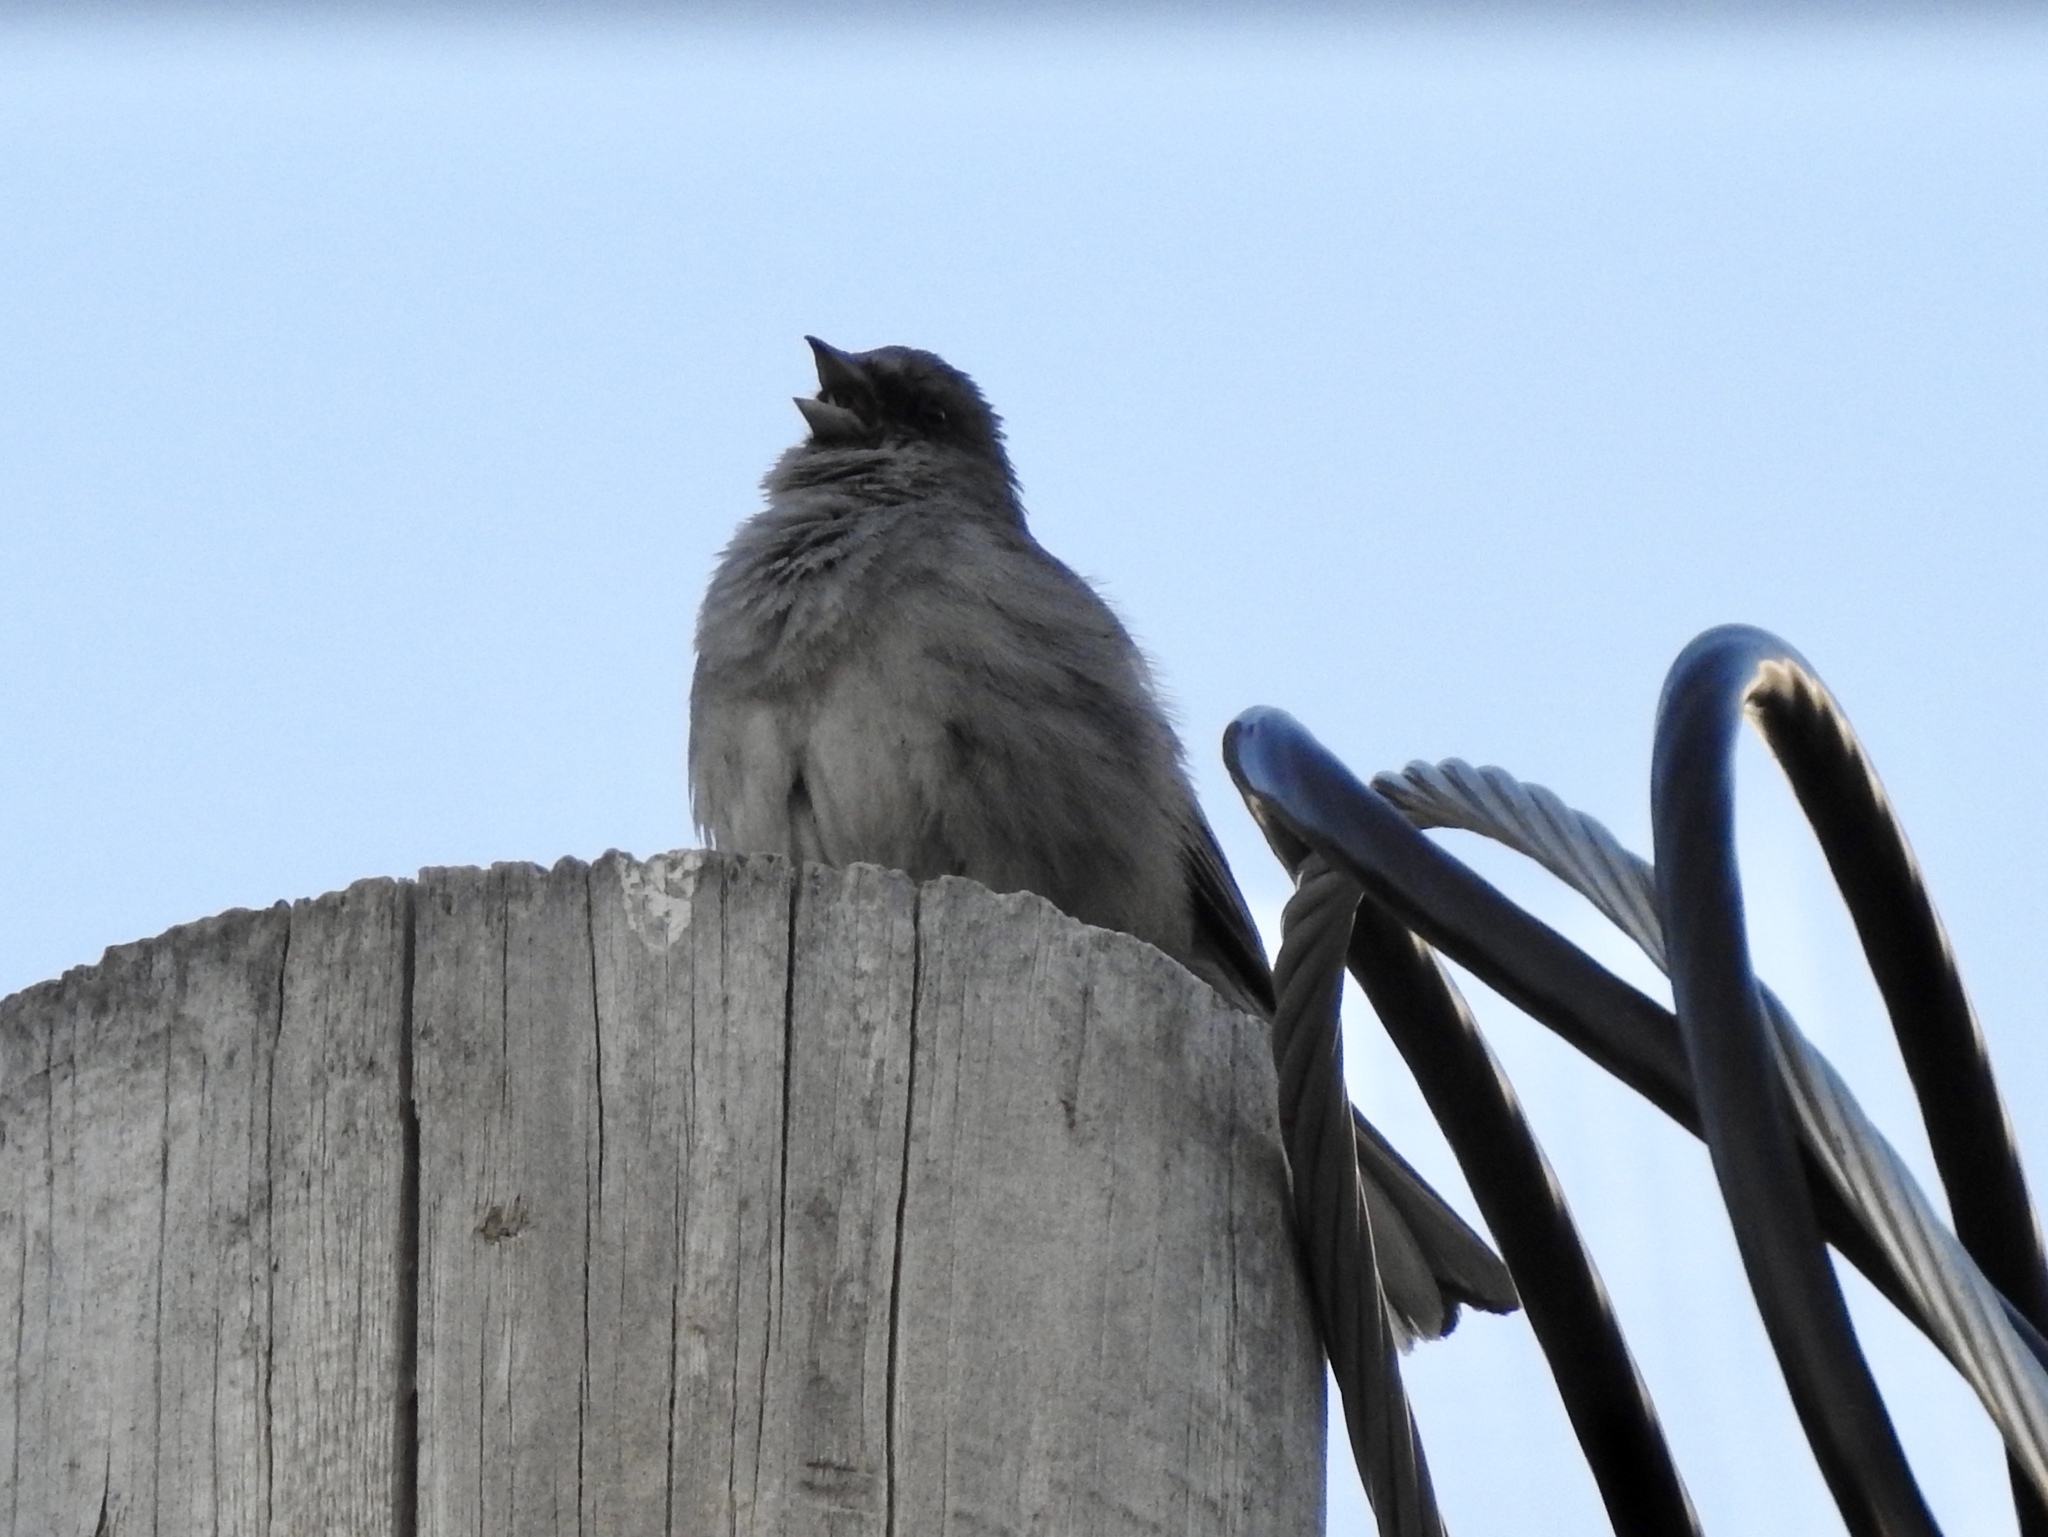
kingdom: Animalia
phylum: Chordata
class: Aves
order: Passeriformes
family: Passerellidae
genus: Junco
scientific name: Junco hyemalis
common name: Dark-eyed junco
